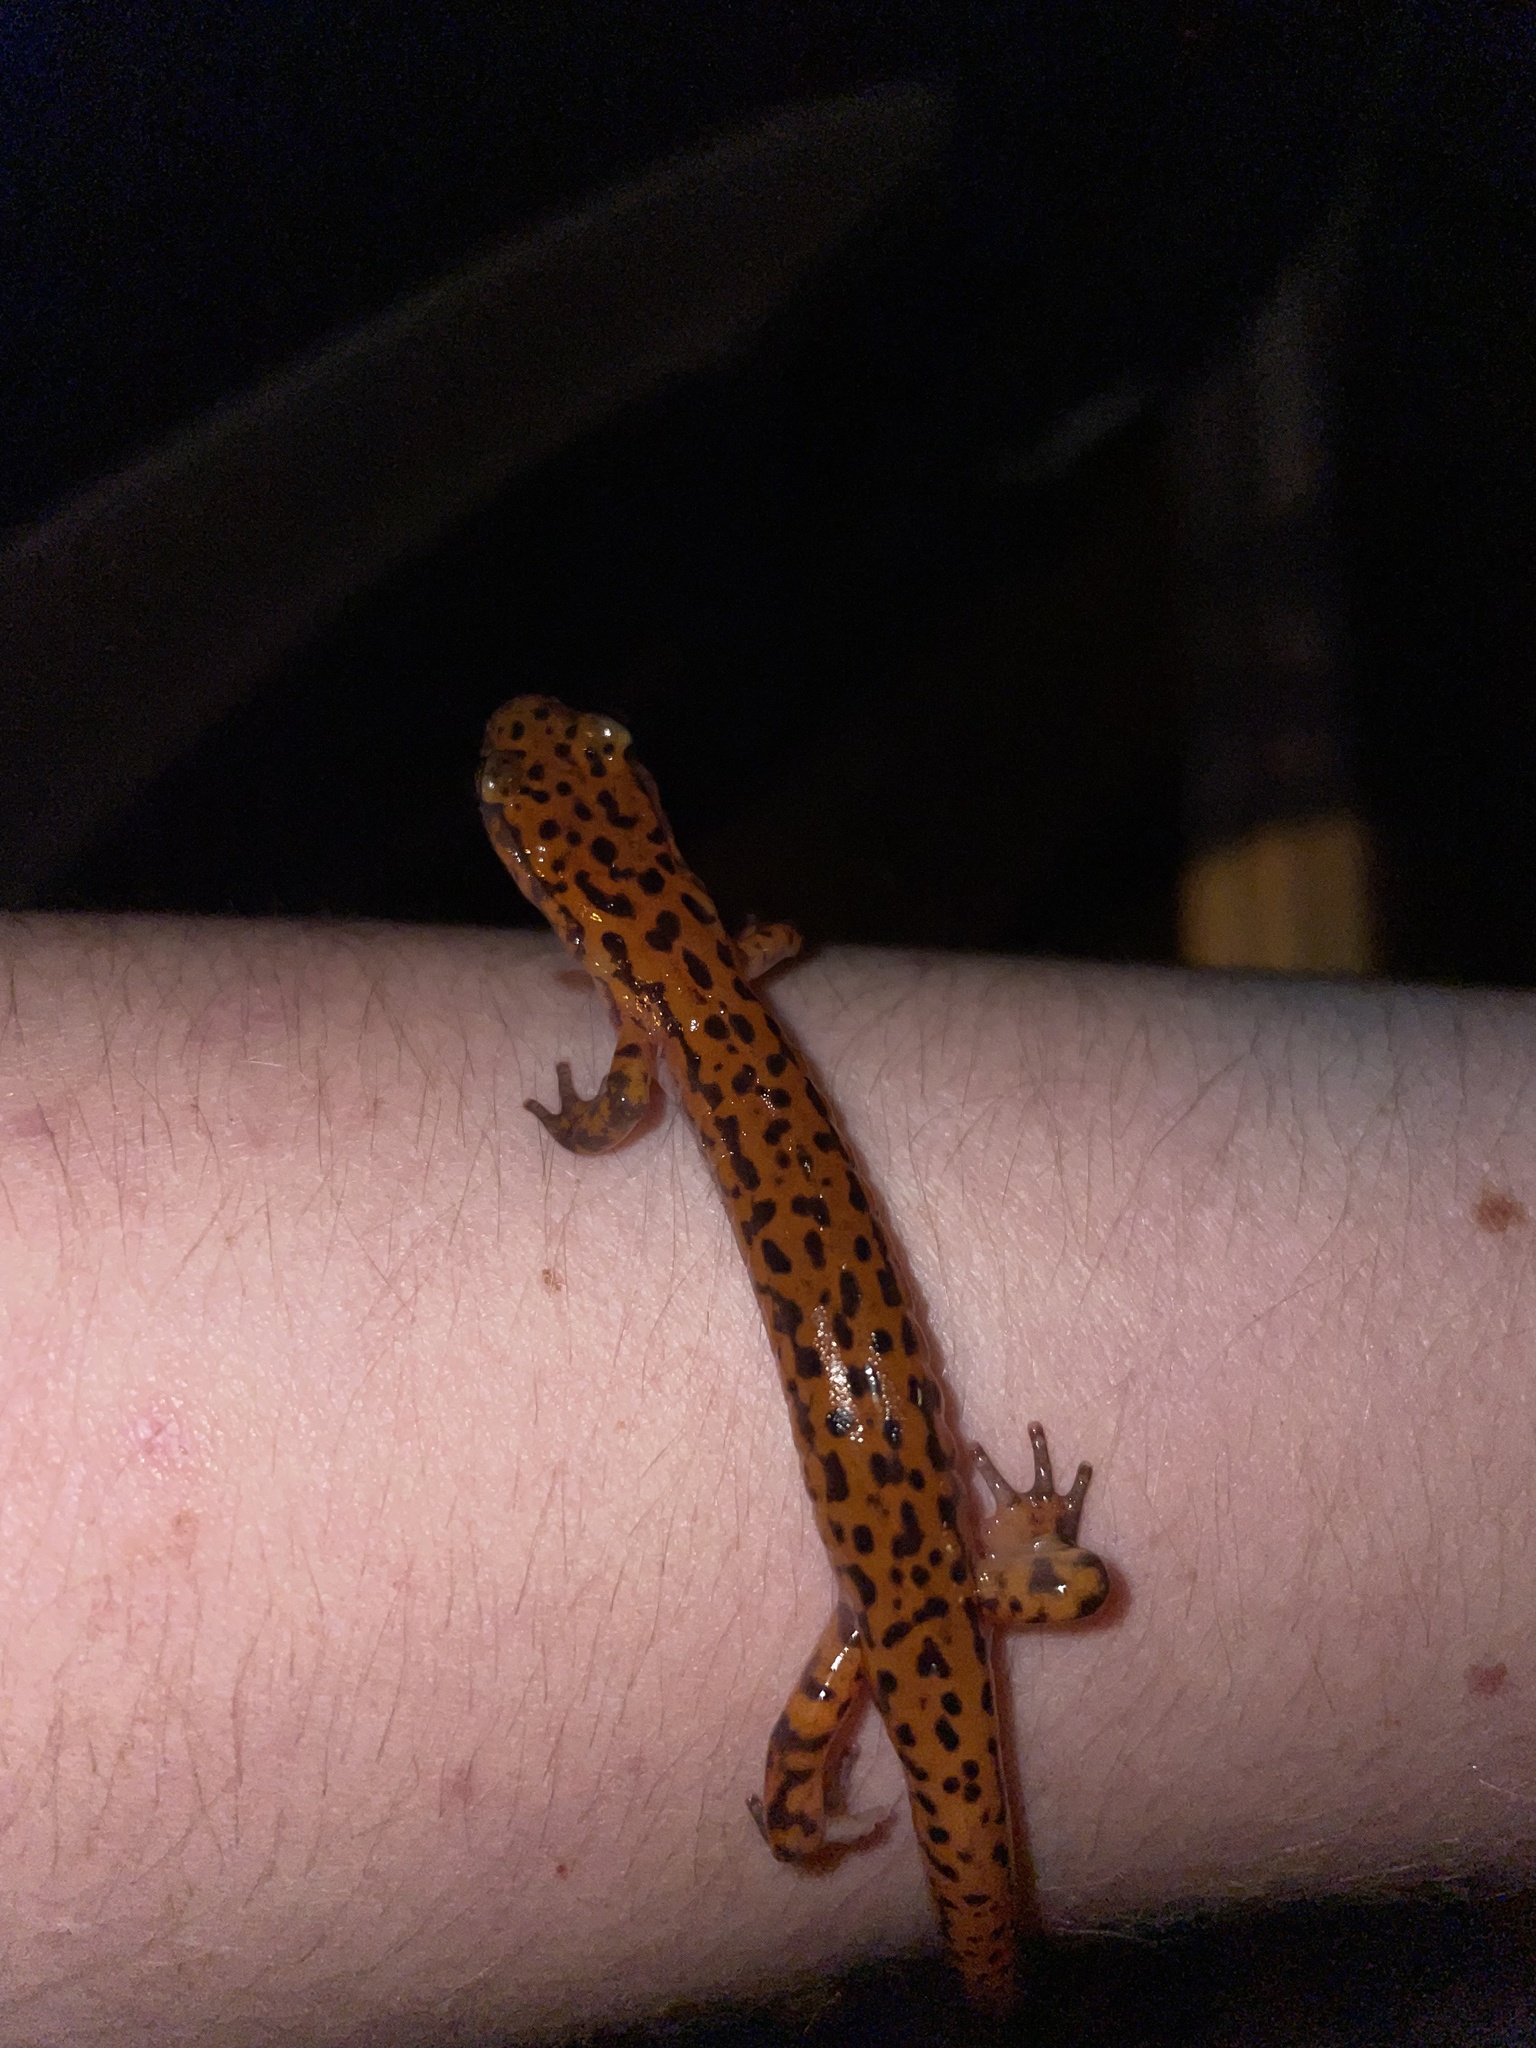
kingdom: Animalia
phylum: Chordata
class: Amphibia
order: Caudata
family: Plethodontidae
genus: Eurycea
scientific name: Eurycea lucifuga
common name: Cave salamander
